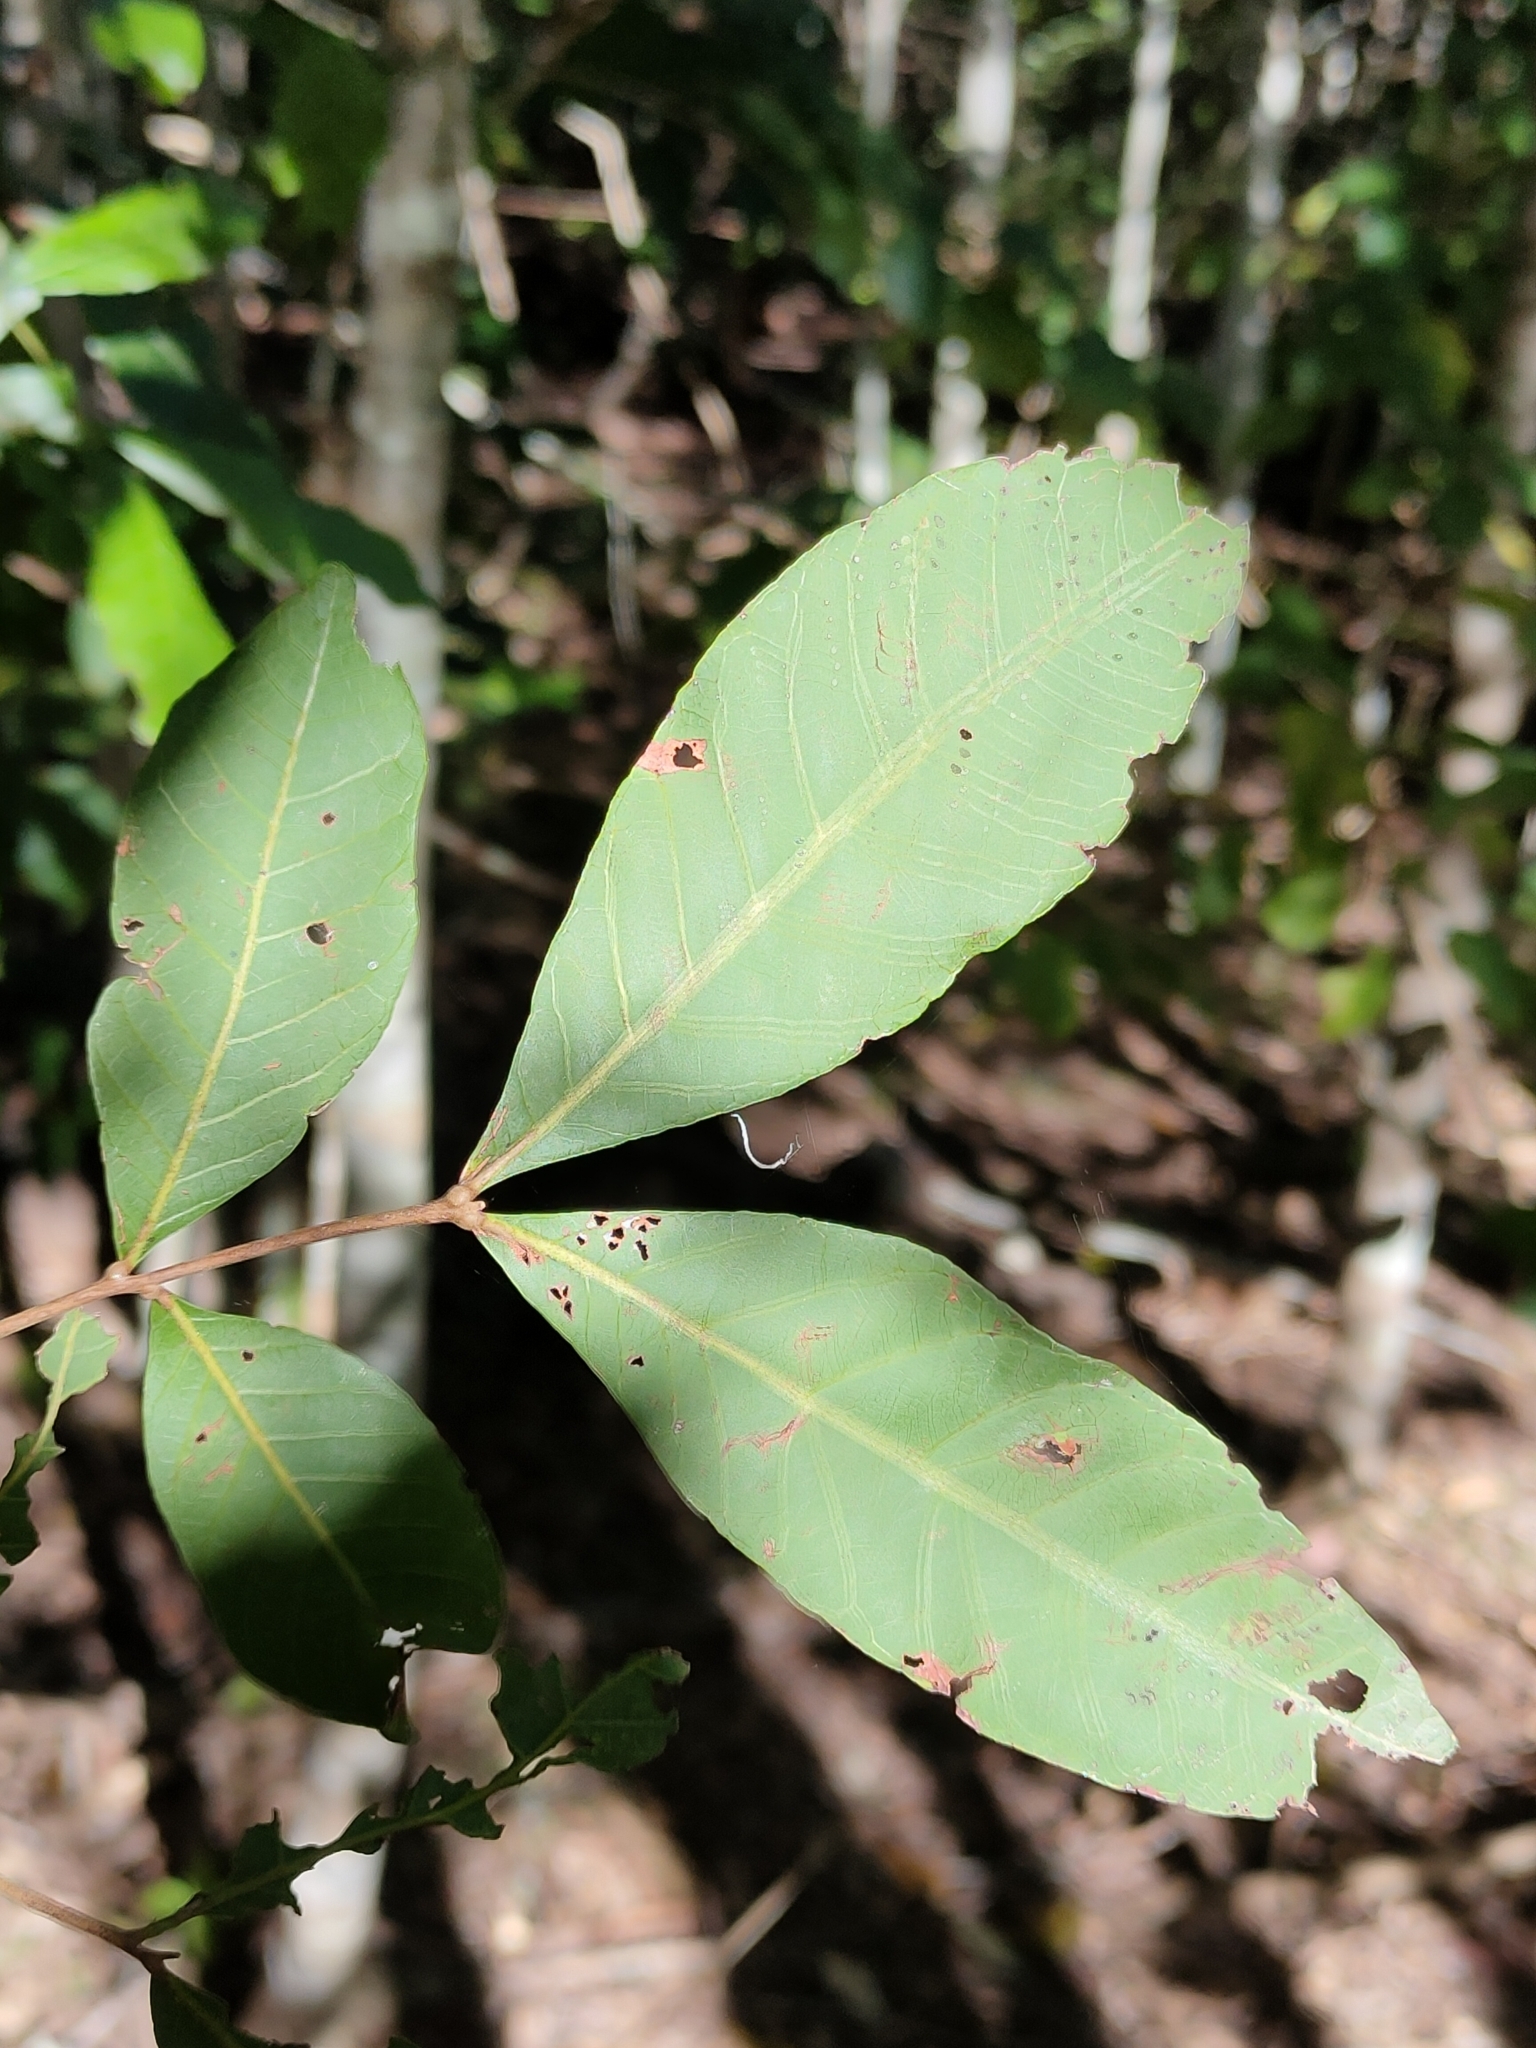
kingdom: Plantae
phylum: Tracheophyta
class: Magnoliopsida
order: Sapindales
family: Sapindaceae
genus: Alectryon
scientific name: Alectryon connatus
